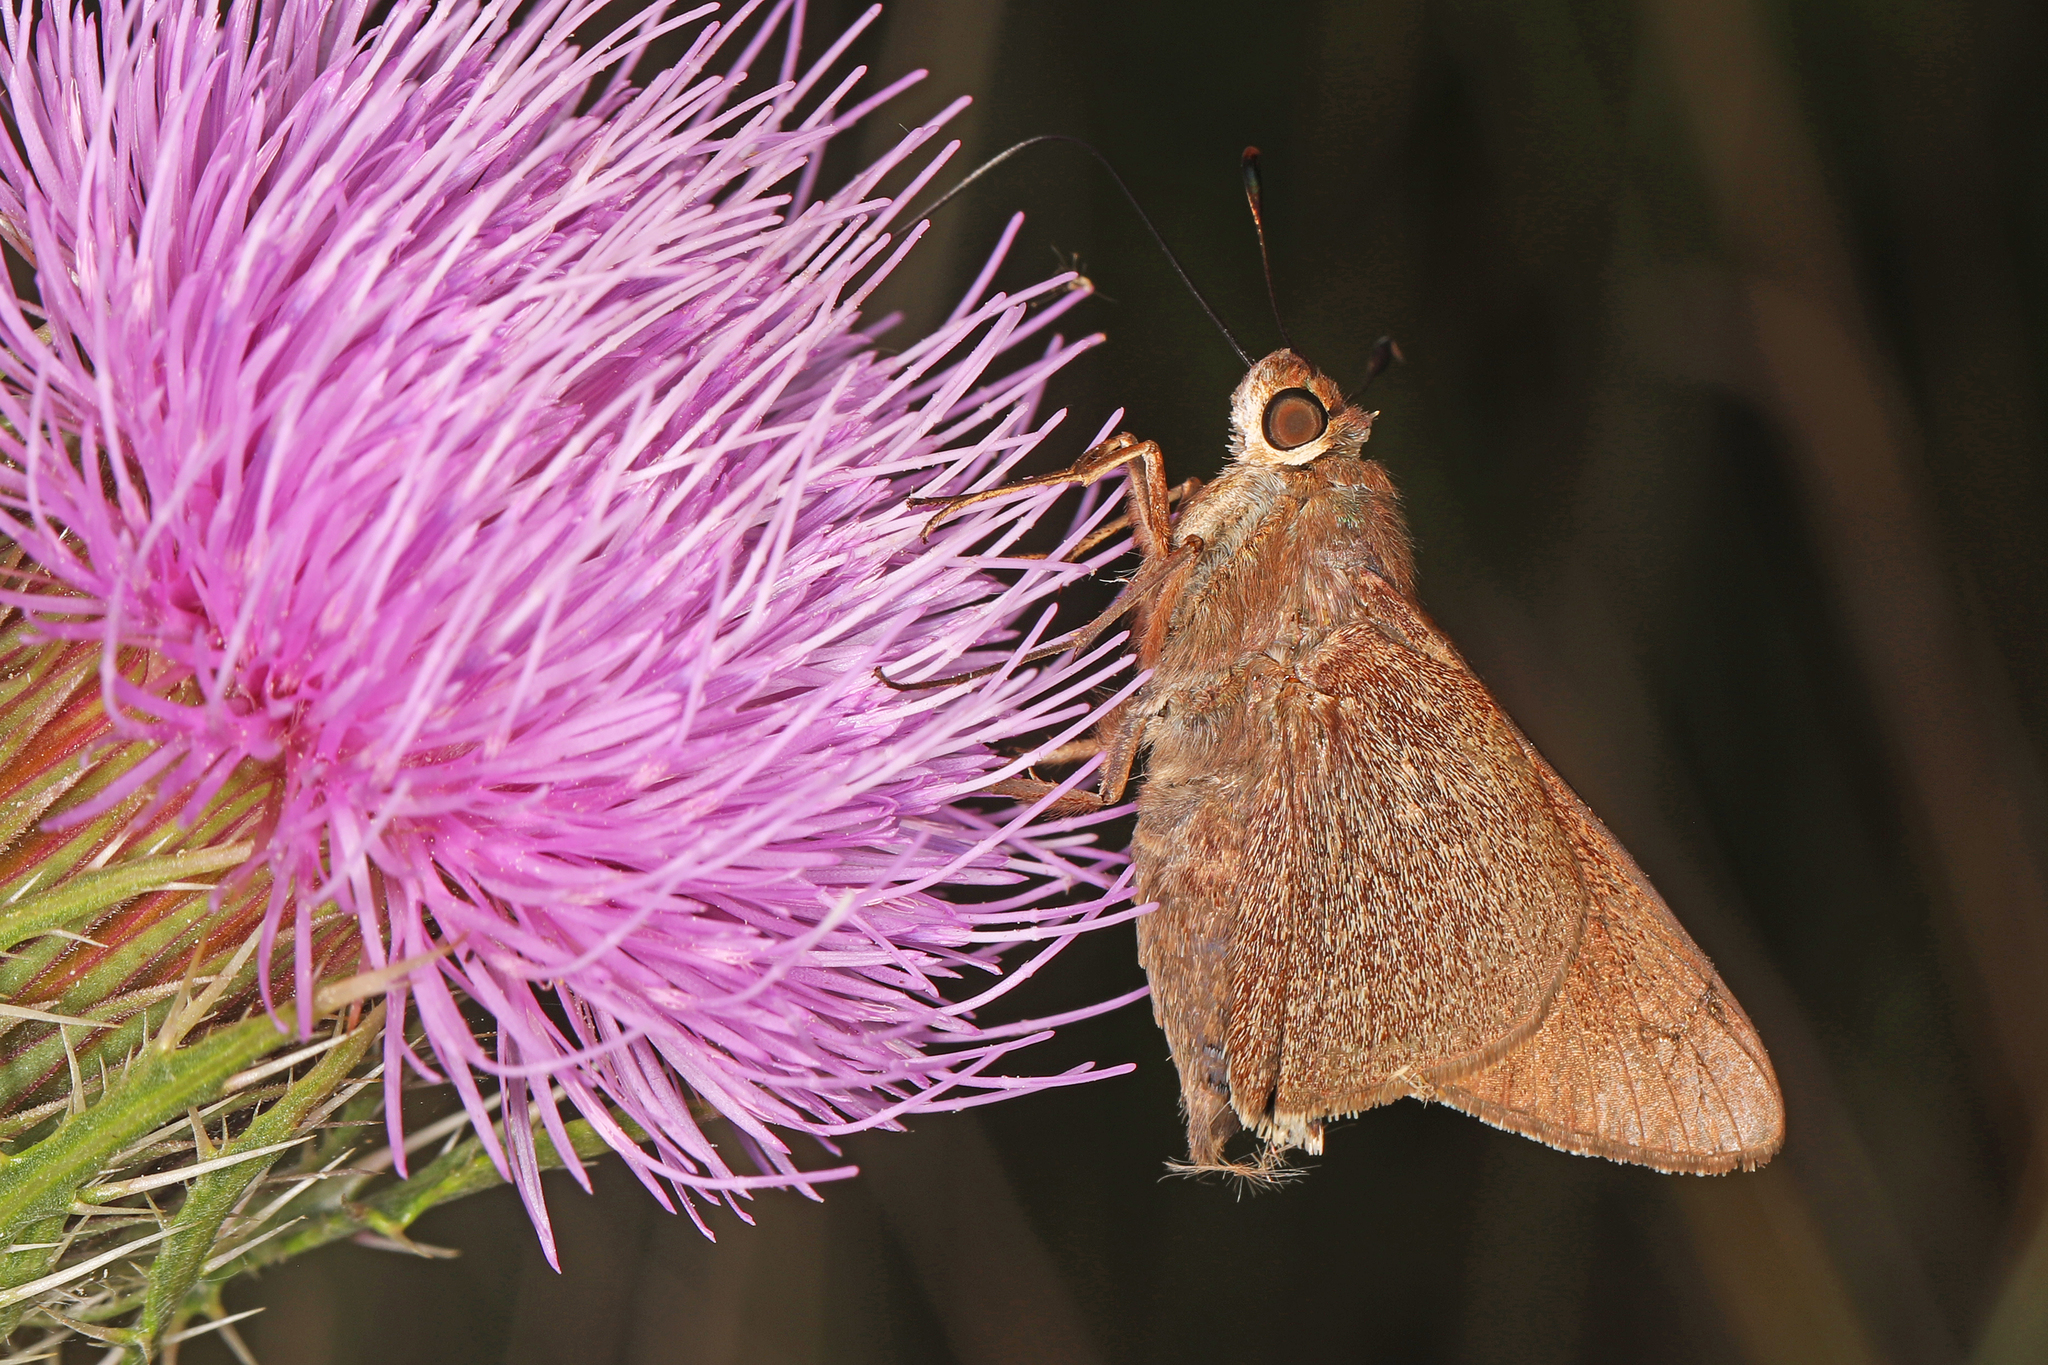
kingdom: Animalia
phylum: Arthropoda
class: Insecta
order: Lepidoptera
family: Hesperiidae
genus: Asbolis
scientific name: Asbolis capucinus
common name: Monk skipper
